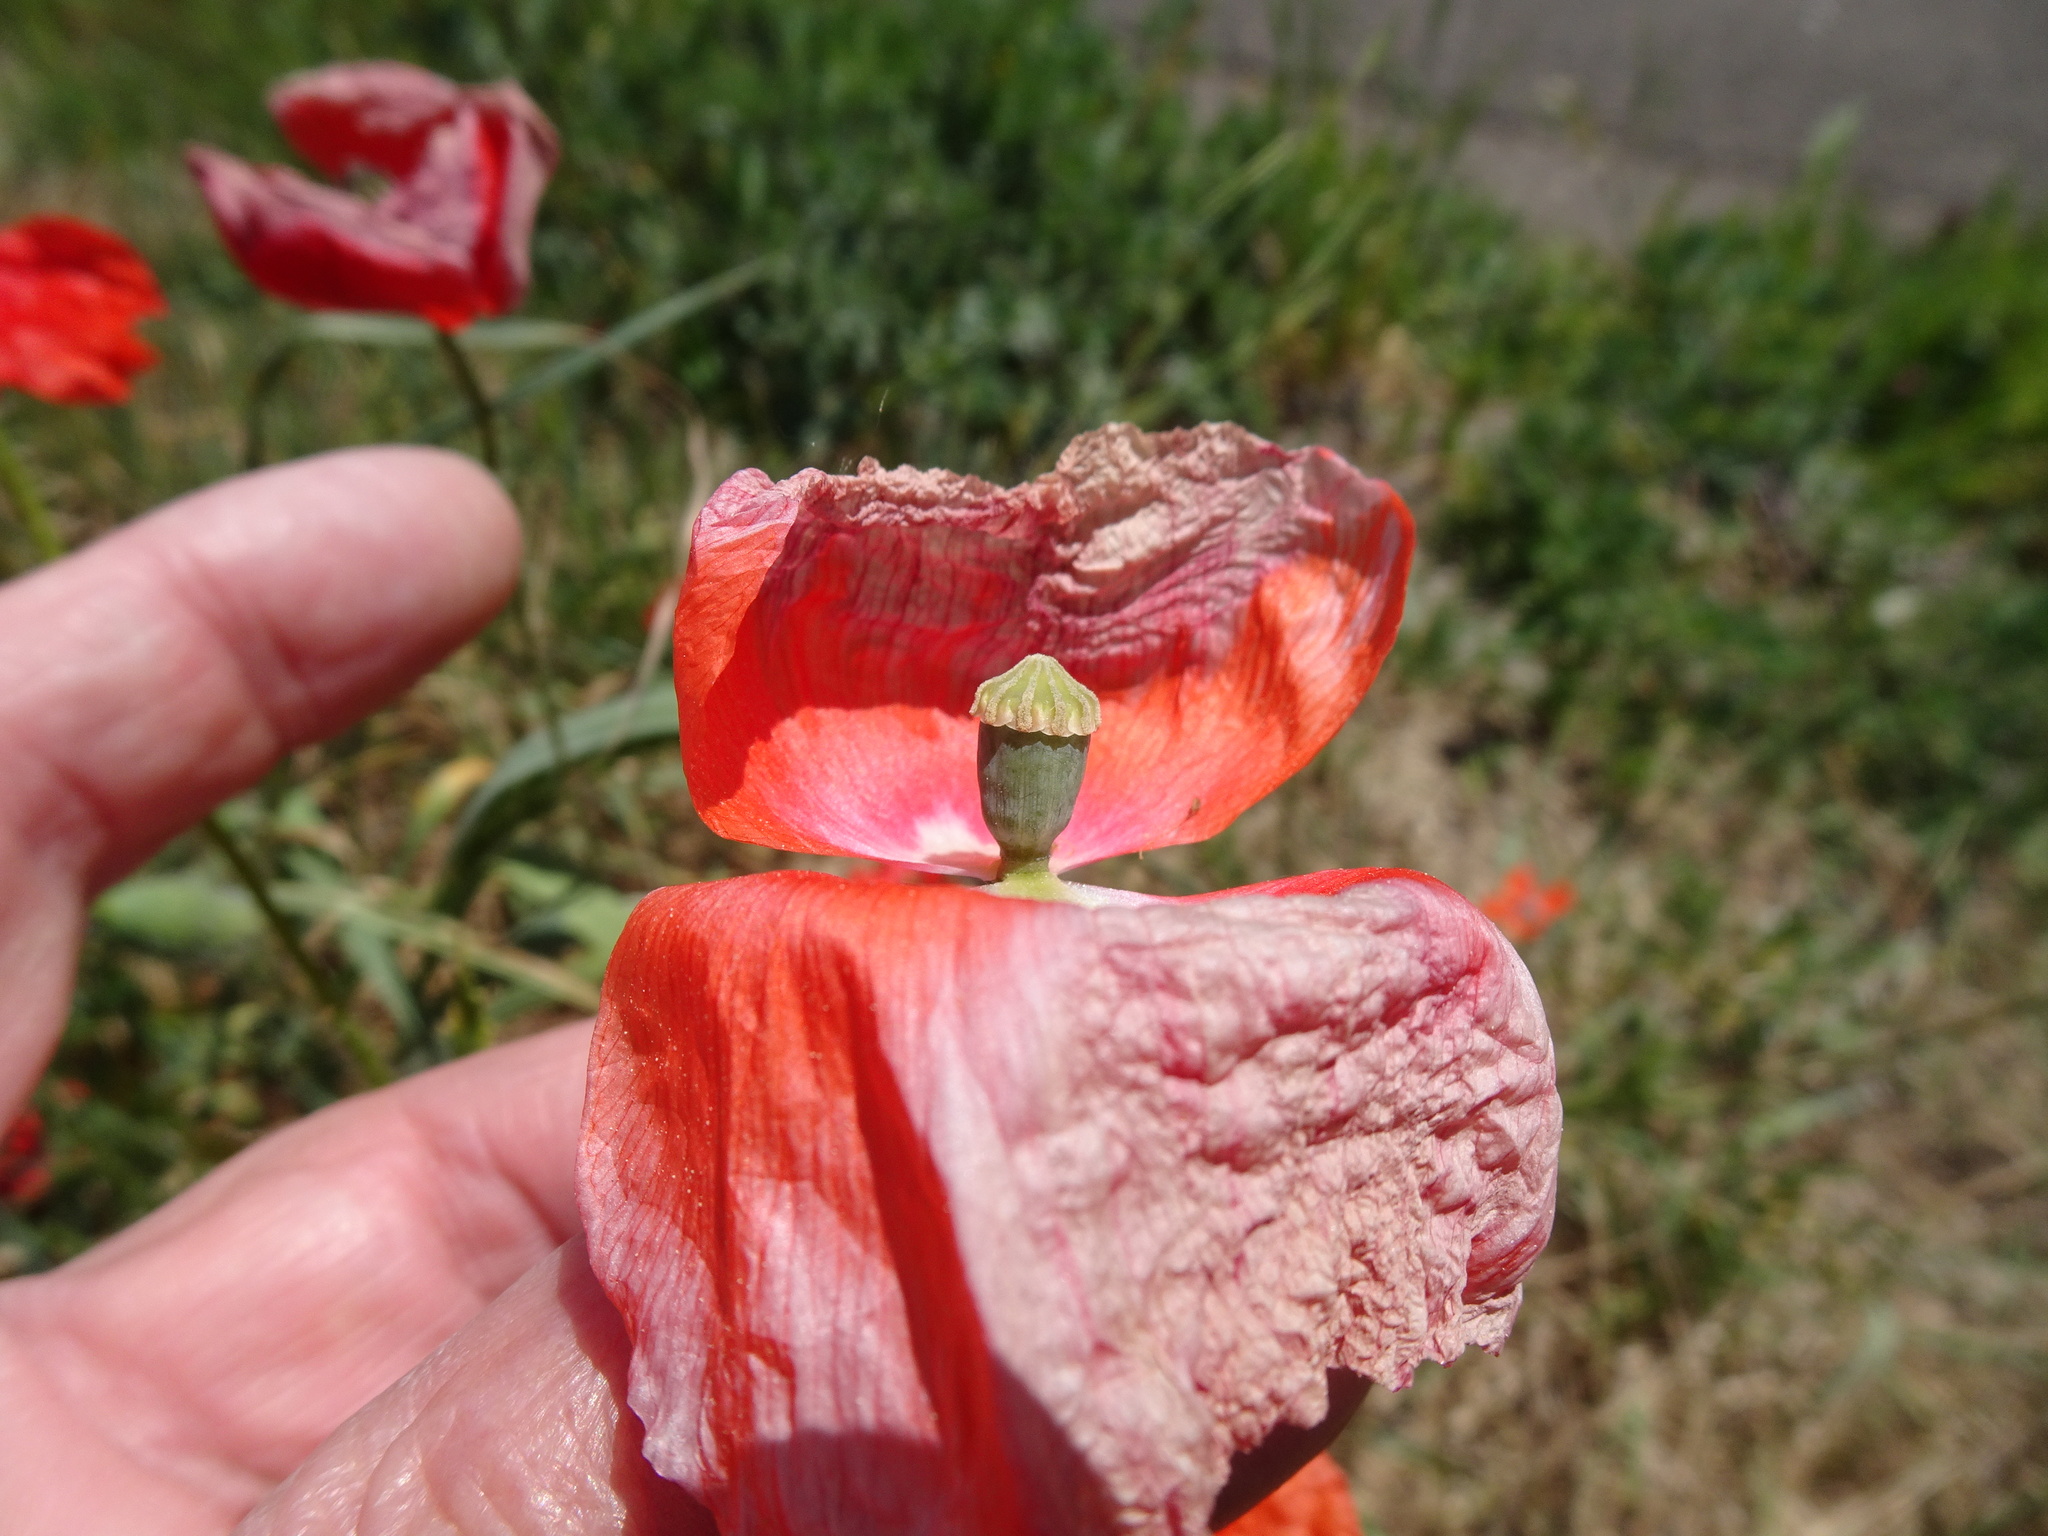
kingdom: Plantae
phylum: Tracheophyta
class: Magnoliopsida
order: Ranunculales
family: Papaveraceae
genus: Papaver
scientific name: Papaver rhoeas
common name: Corn poppy
